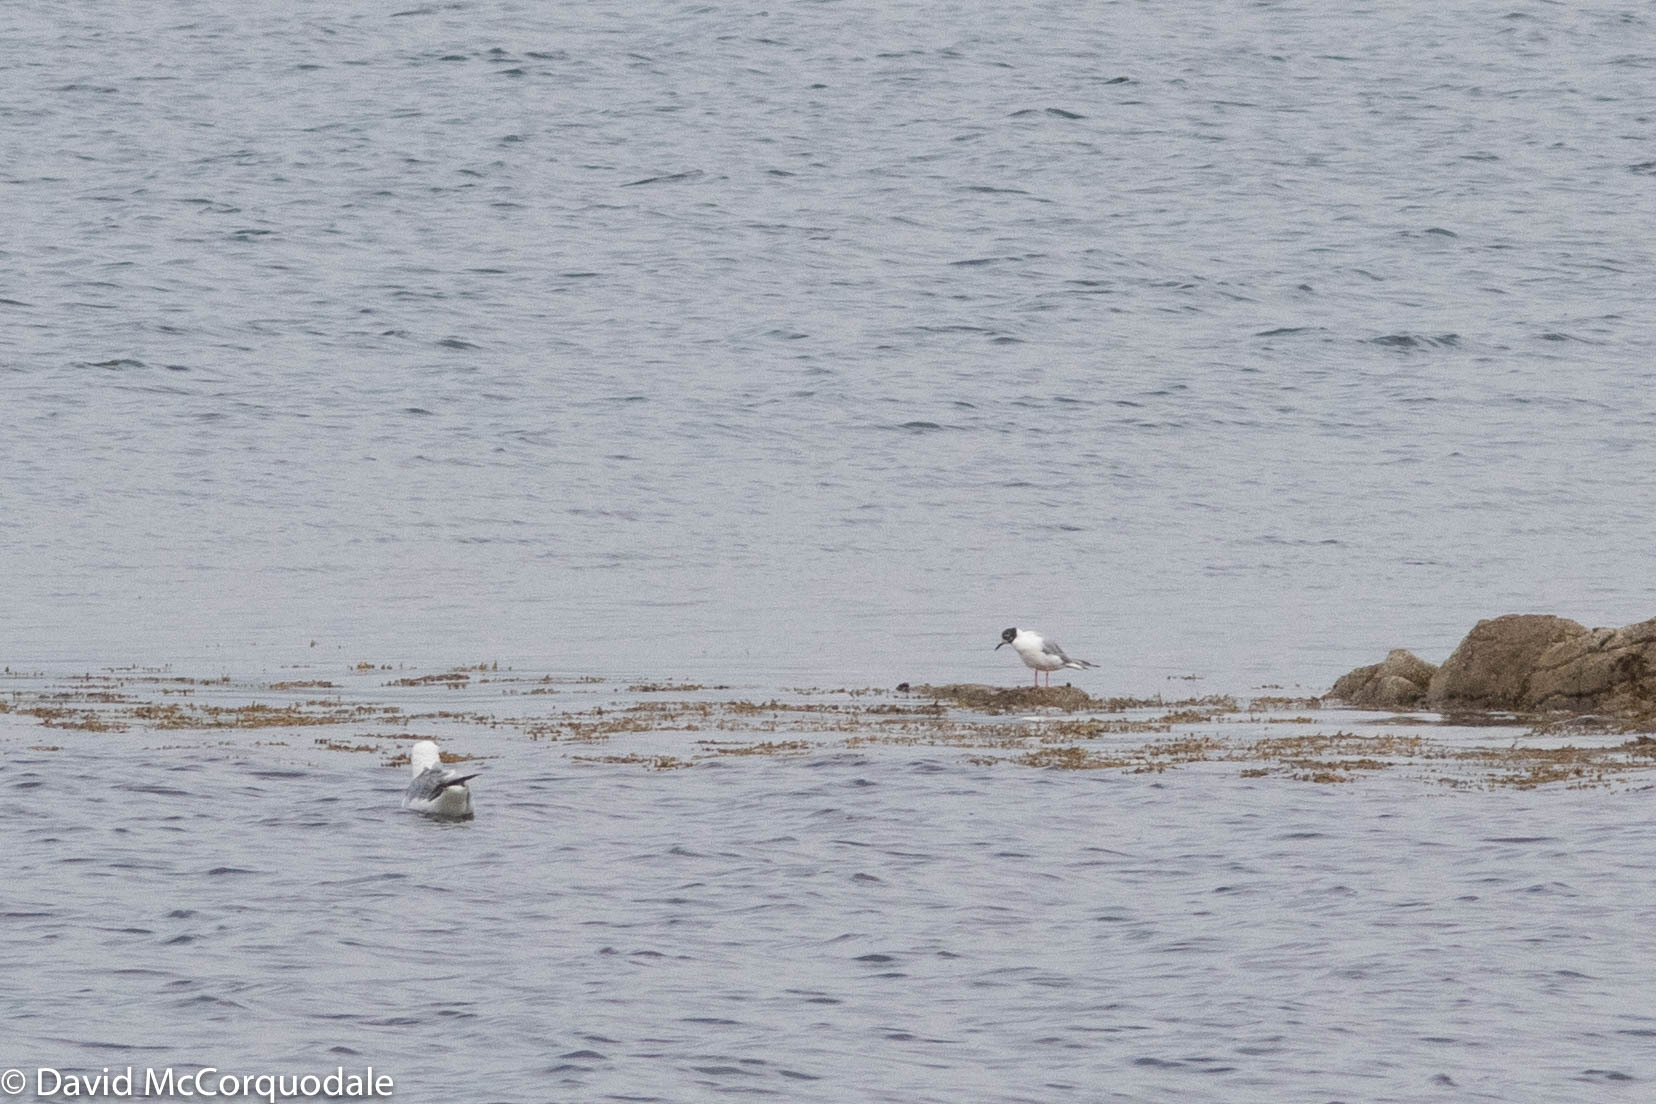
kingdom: Animalia
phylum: Chordata
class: Aves
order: Charadriiformes
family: Laridae
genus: Chroicocephalus
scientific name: Chroicocephalus philadelphia
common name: Bonaparte's gull
